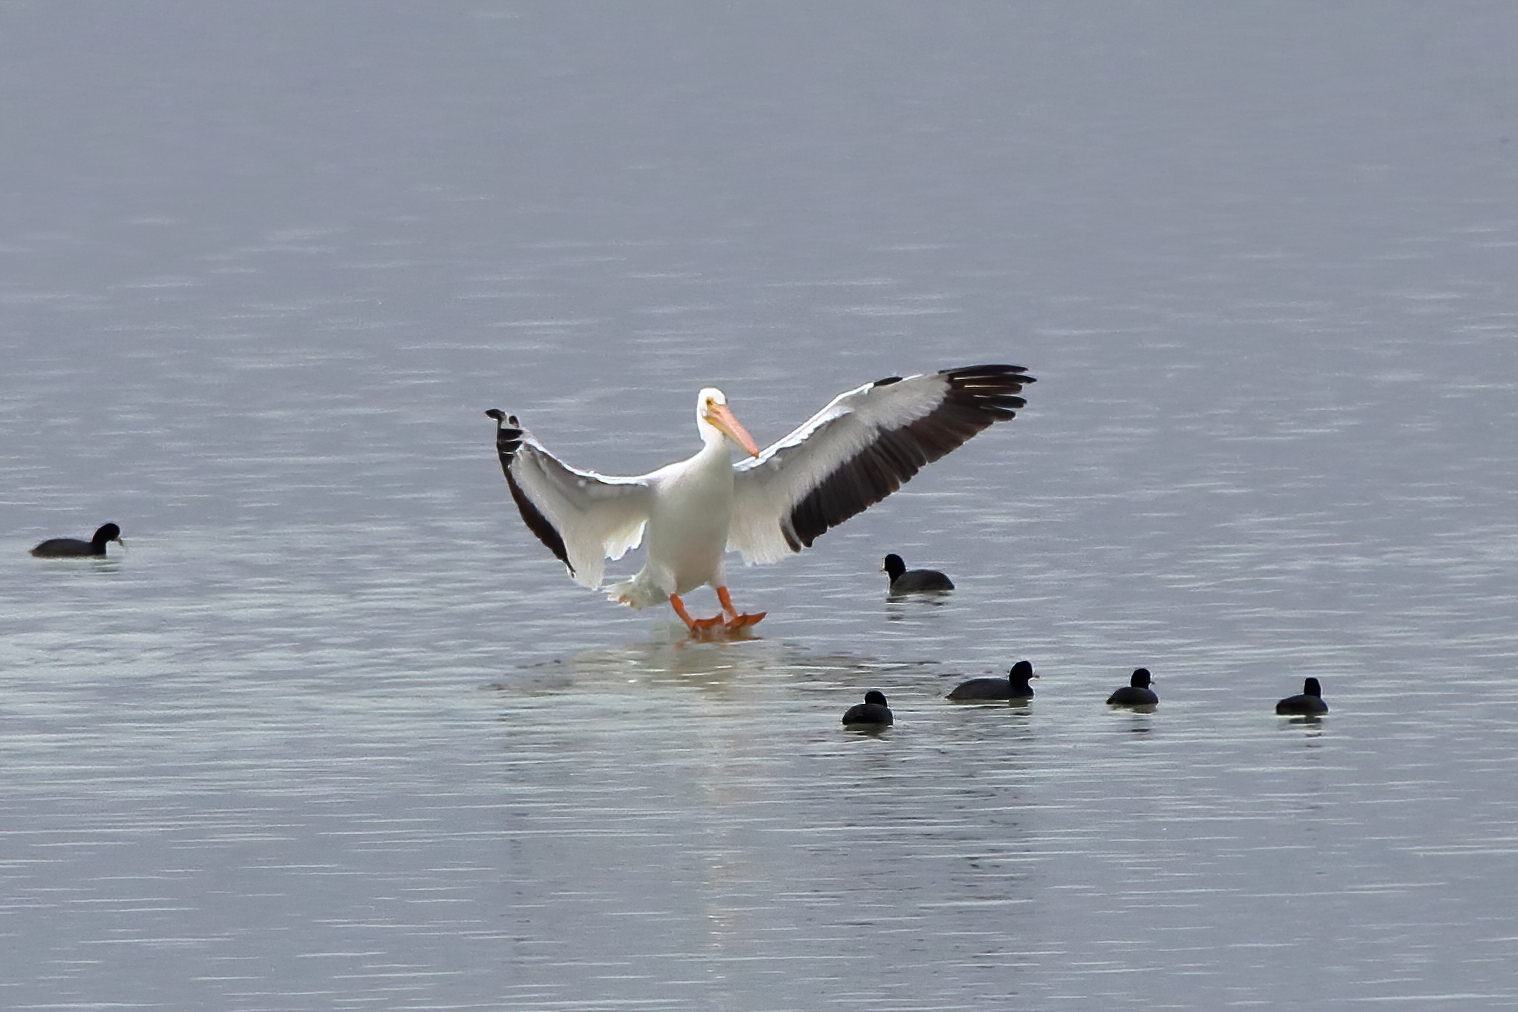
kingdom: Animalia
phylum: Chordata
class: Aves
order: Pelecaniformes
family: Pelecanidae
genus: Pelecanus
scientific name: Pelecanus erythrorhynchos
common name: American white pelican
